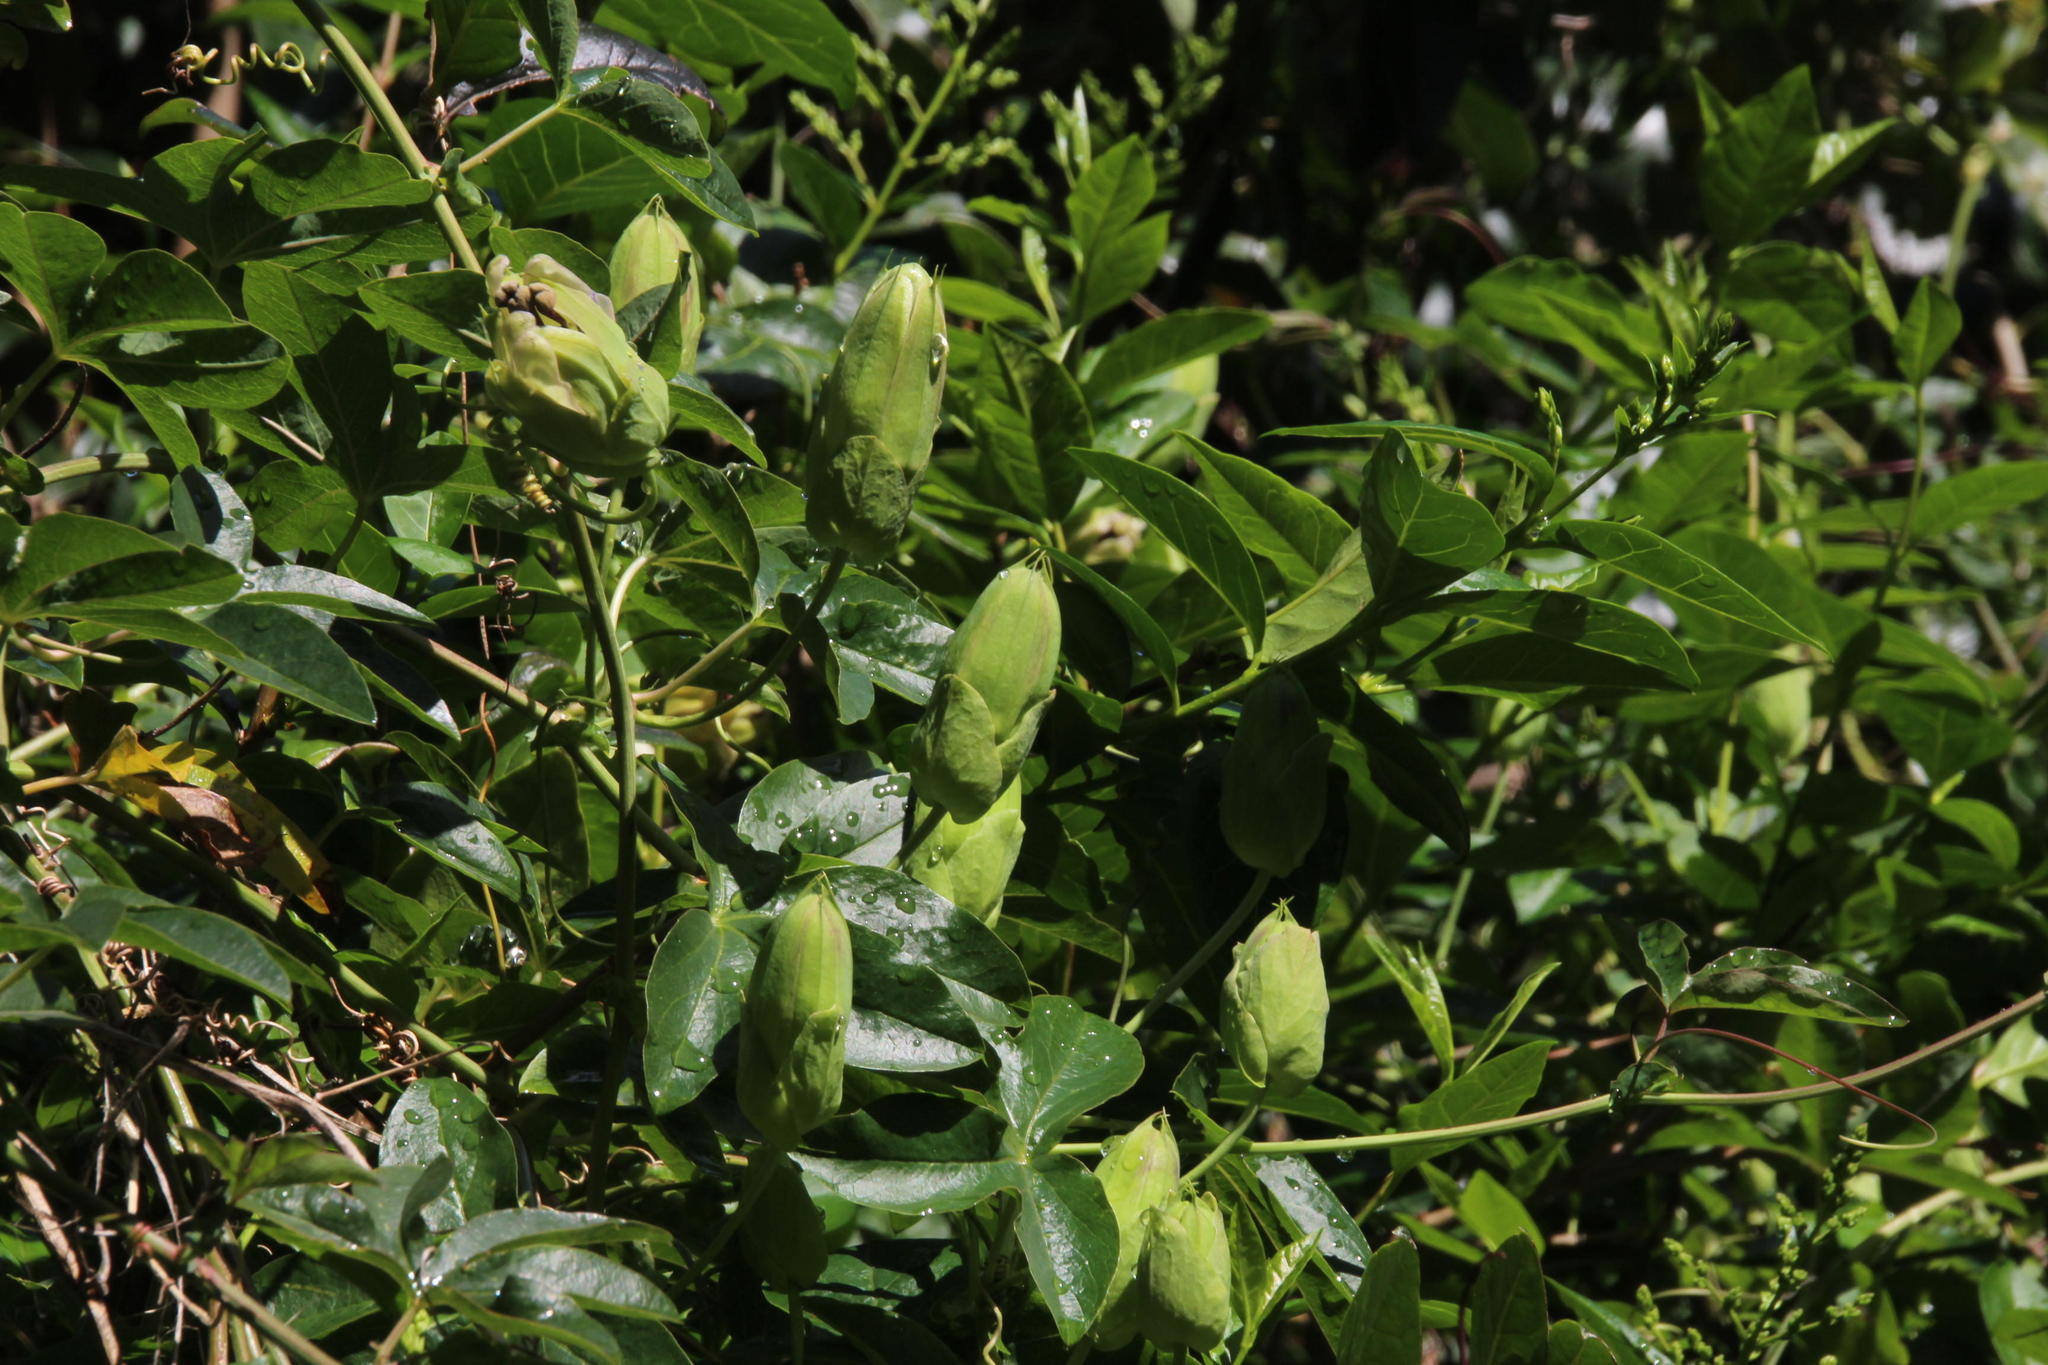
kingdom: Plantae
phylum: Tracheophyta
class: Magnoliopsida
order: Malpighiales
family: Passifloraceae
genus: Passiflora
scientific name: Passiflora caerulea
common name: Blue passionflower
